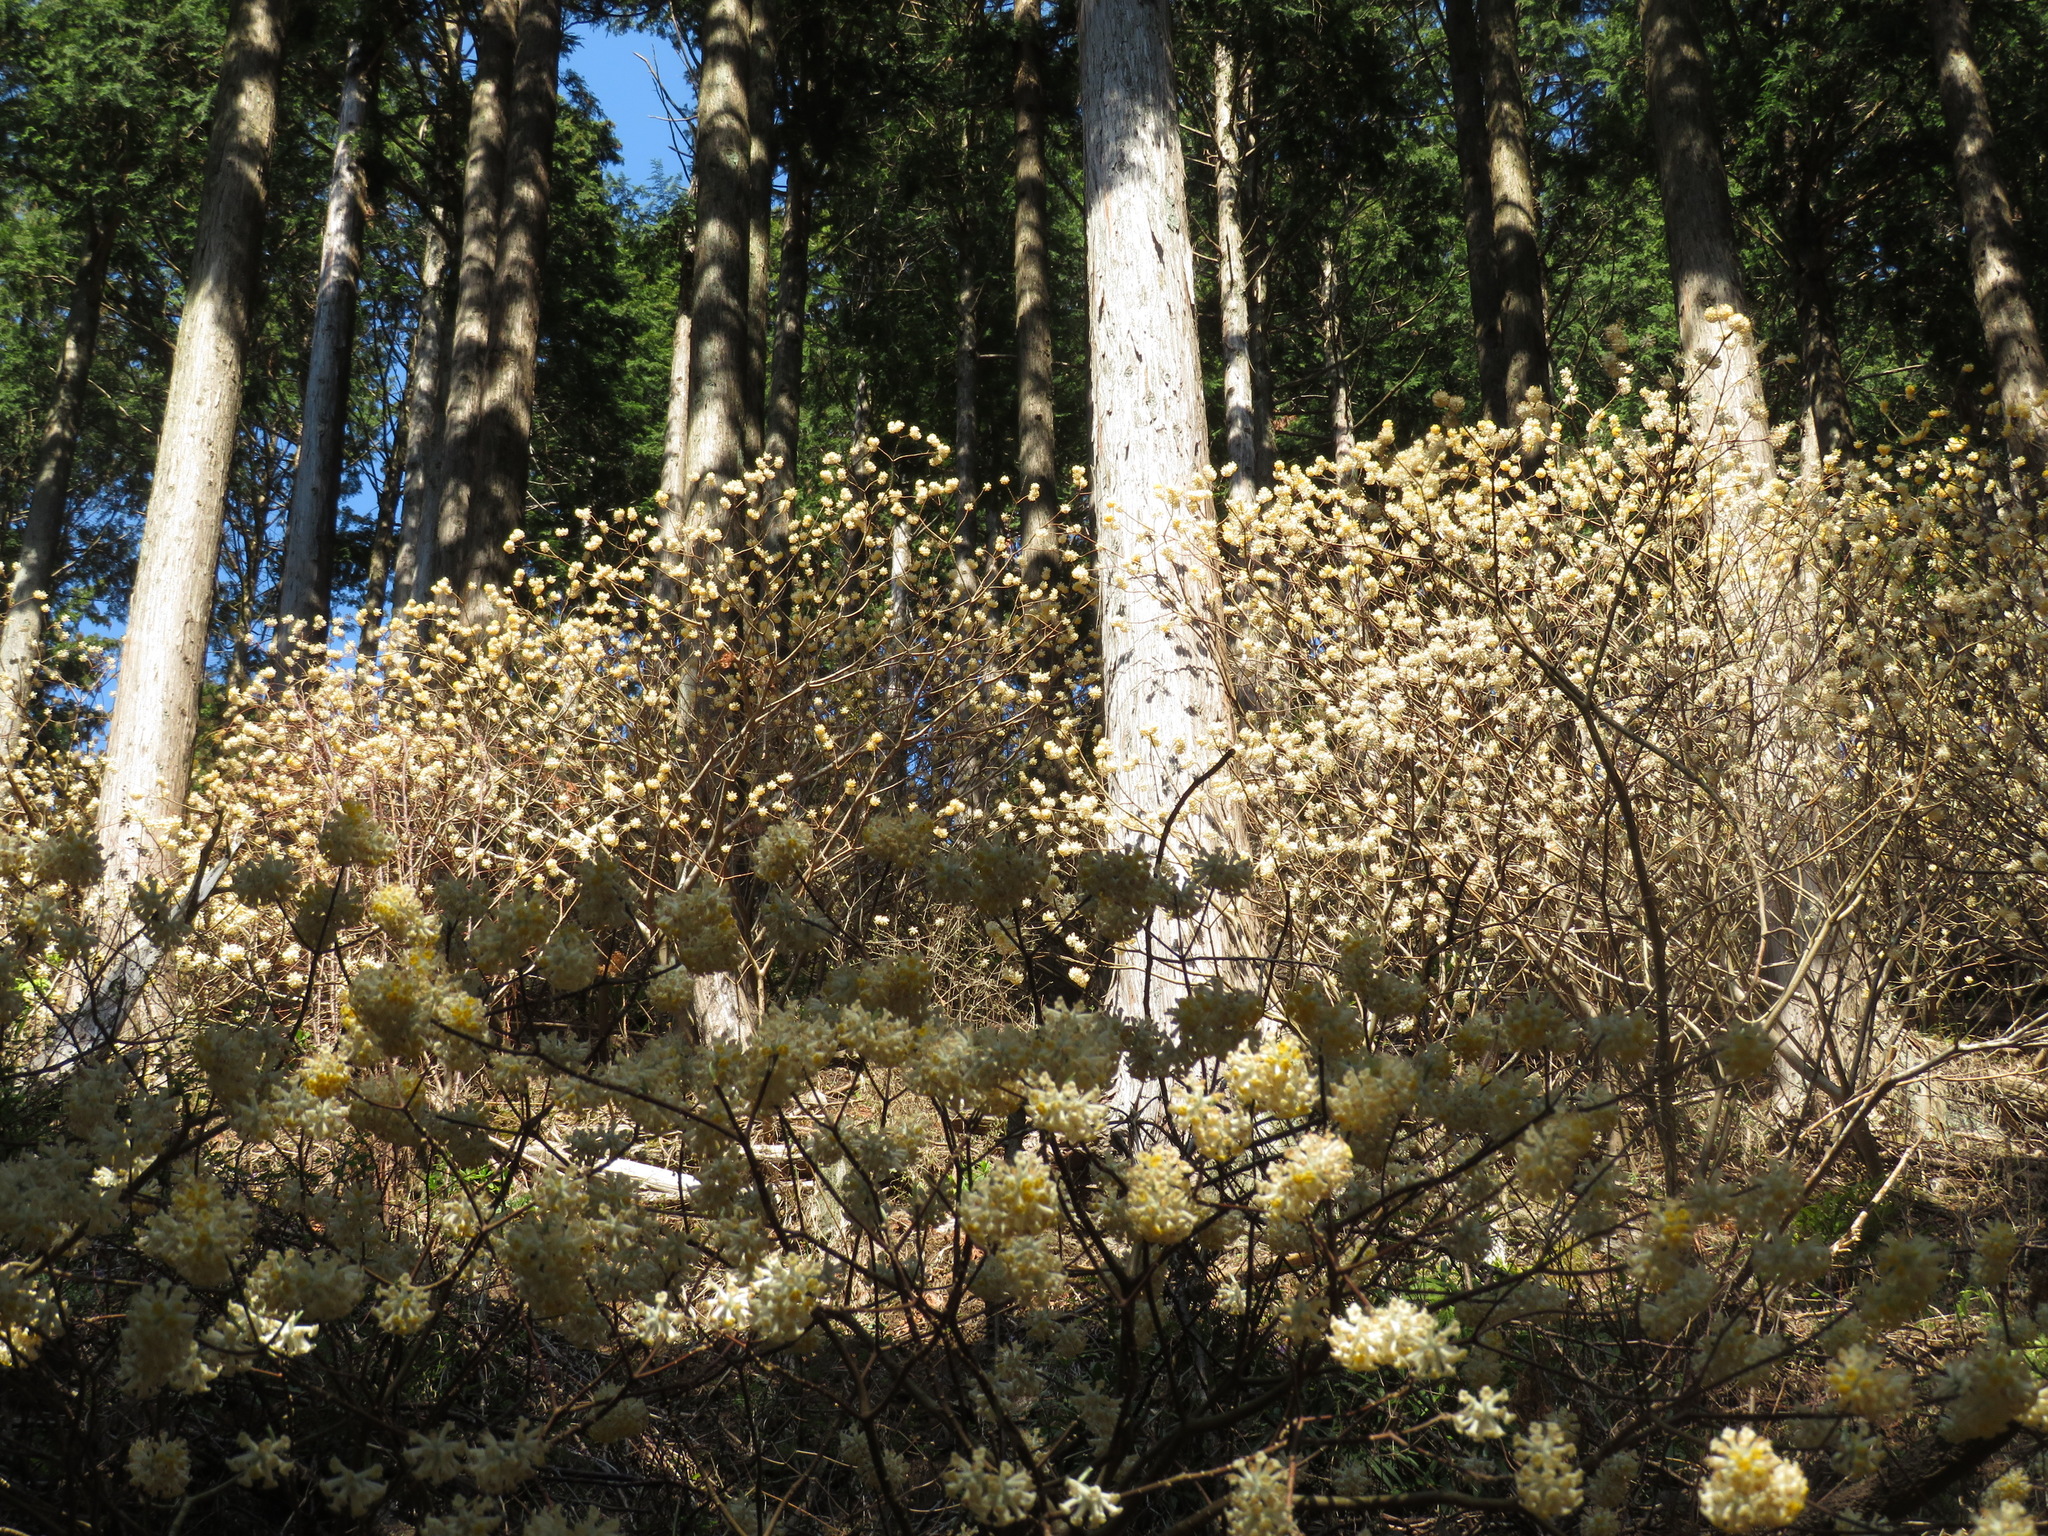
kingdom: Plantae
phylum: Tracheophyta
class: Magnoliopsida
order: Malvales
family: Thymelaeaceae
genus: Edgeworthia
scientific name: Edgeworthia chrysantha
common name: Oriental paperbush
